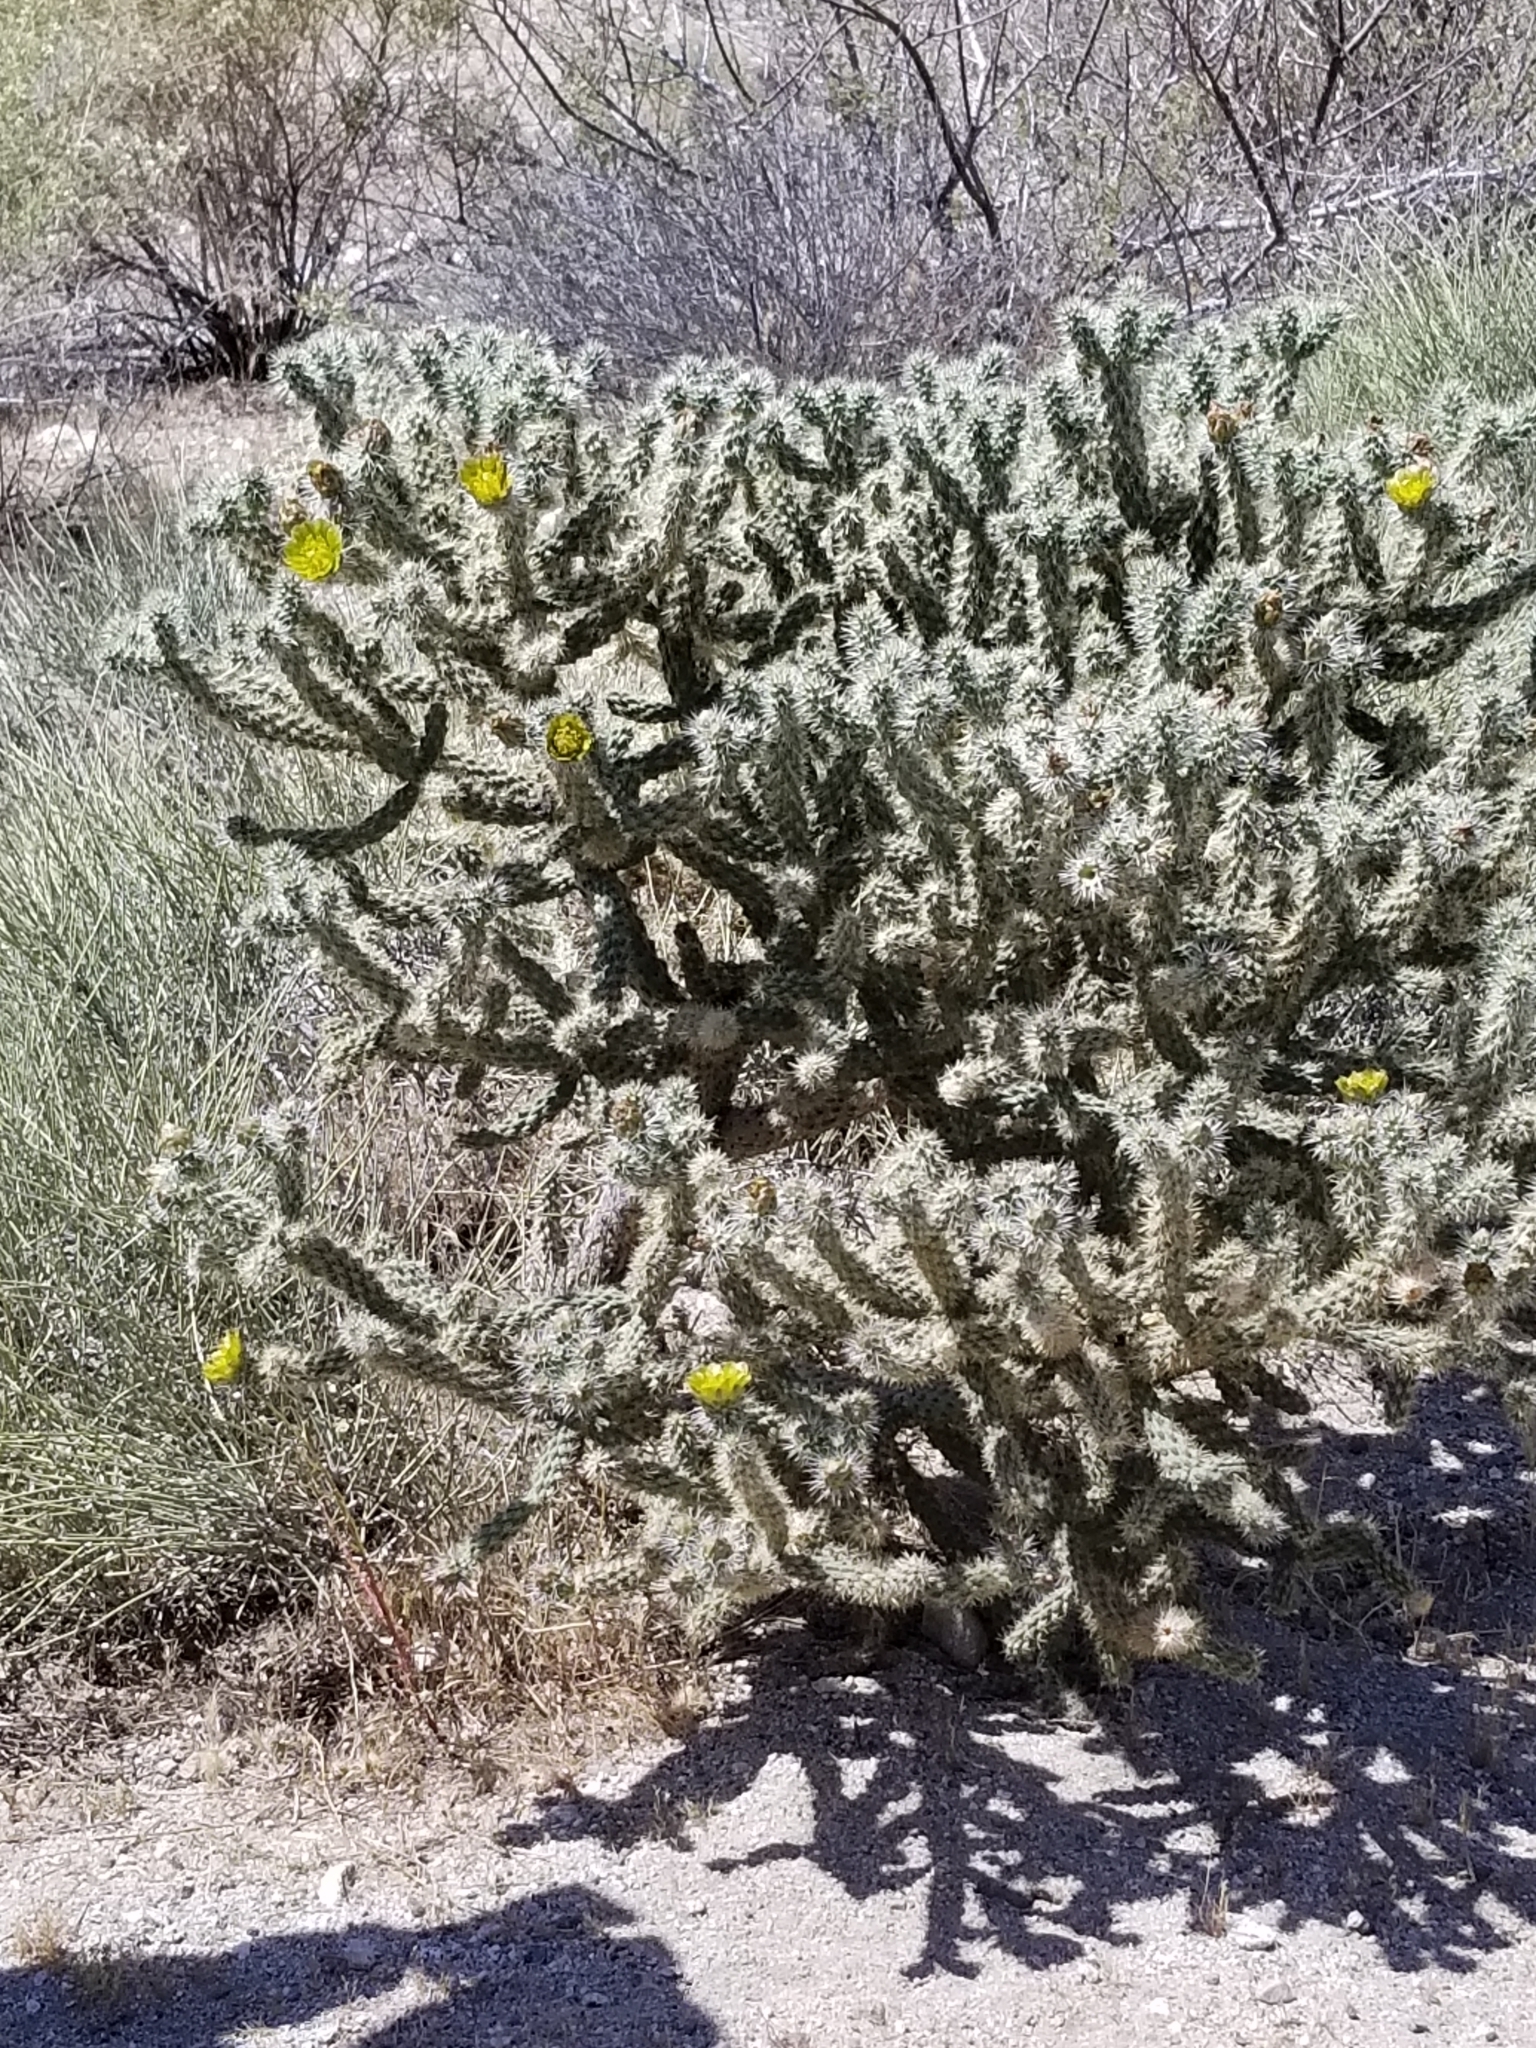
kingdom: Plantae
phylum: Tracheophyta
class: Magnoliopsida
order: Caryophyllales
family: Cactaceae
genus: Cylindropuntia
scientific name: Cylindropuntia echinocarpa
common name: Ground cholla
